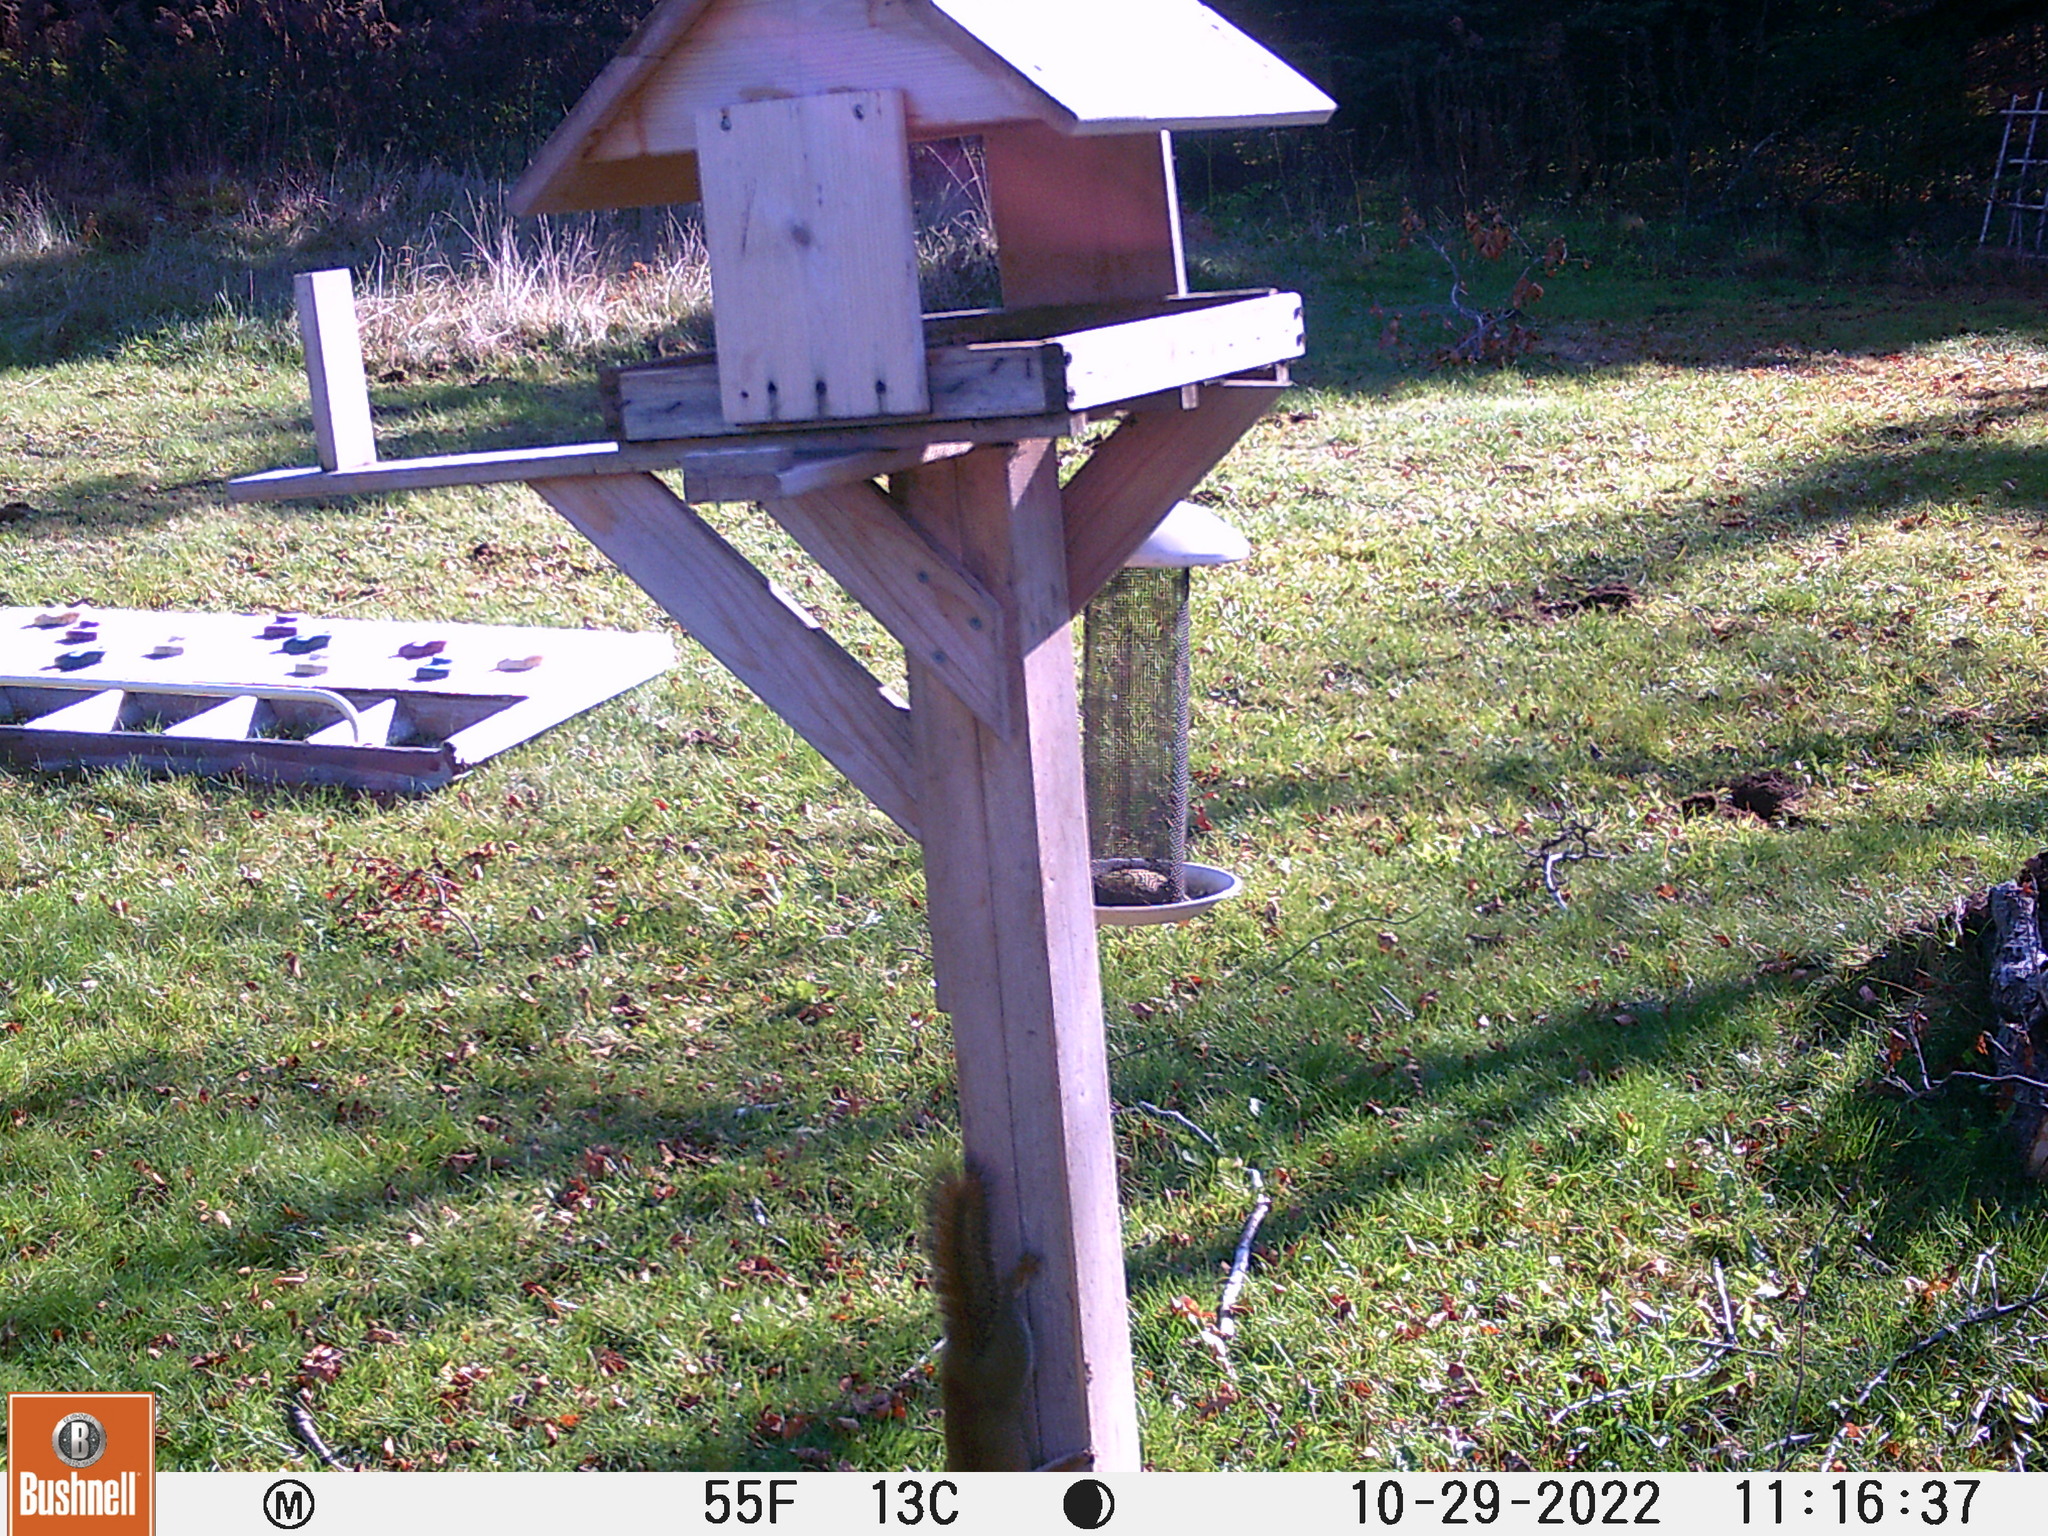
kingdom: Animalia
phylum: Chordata
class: Mammalia
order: Rodentia
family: Sciuridae
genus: Tamiasciurus
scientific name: Tamiasciurus hudsonicus
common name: Red squirrel
